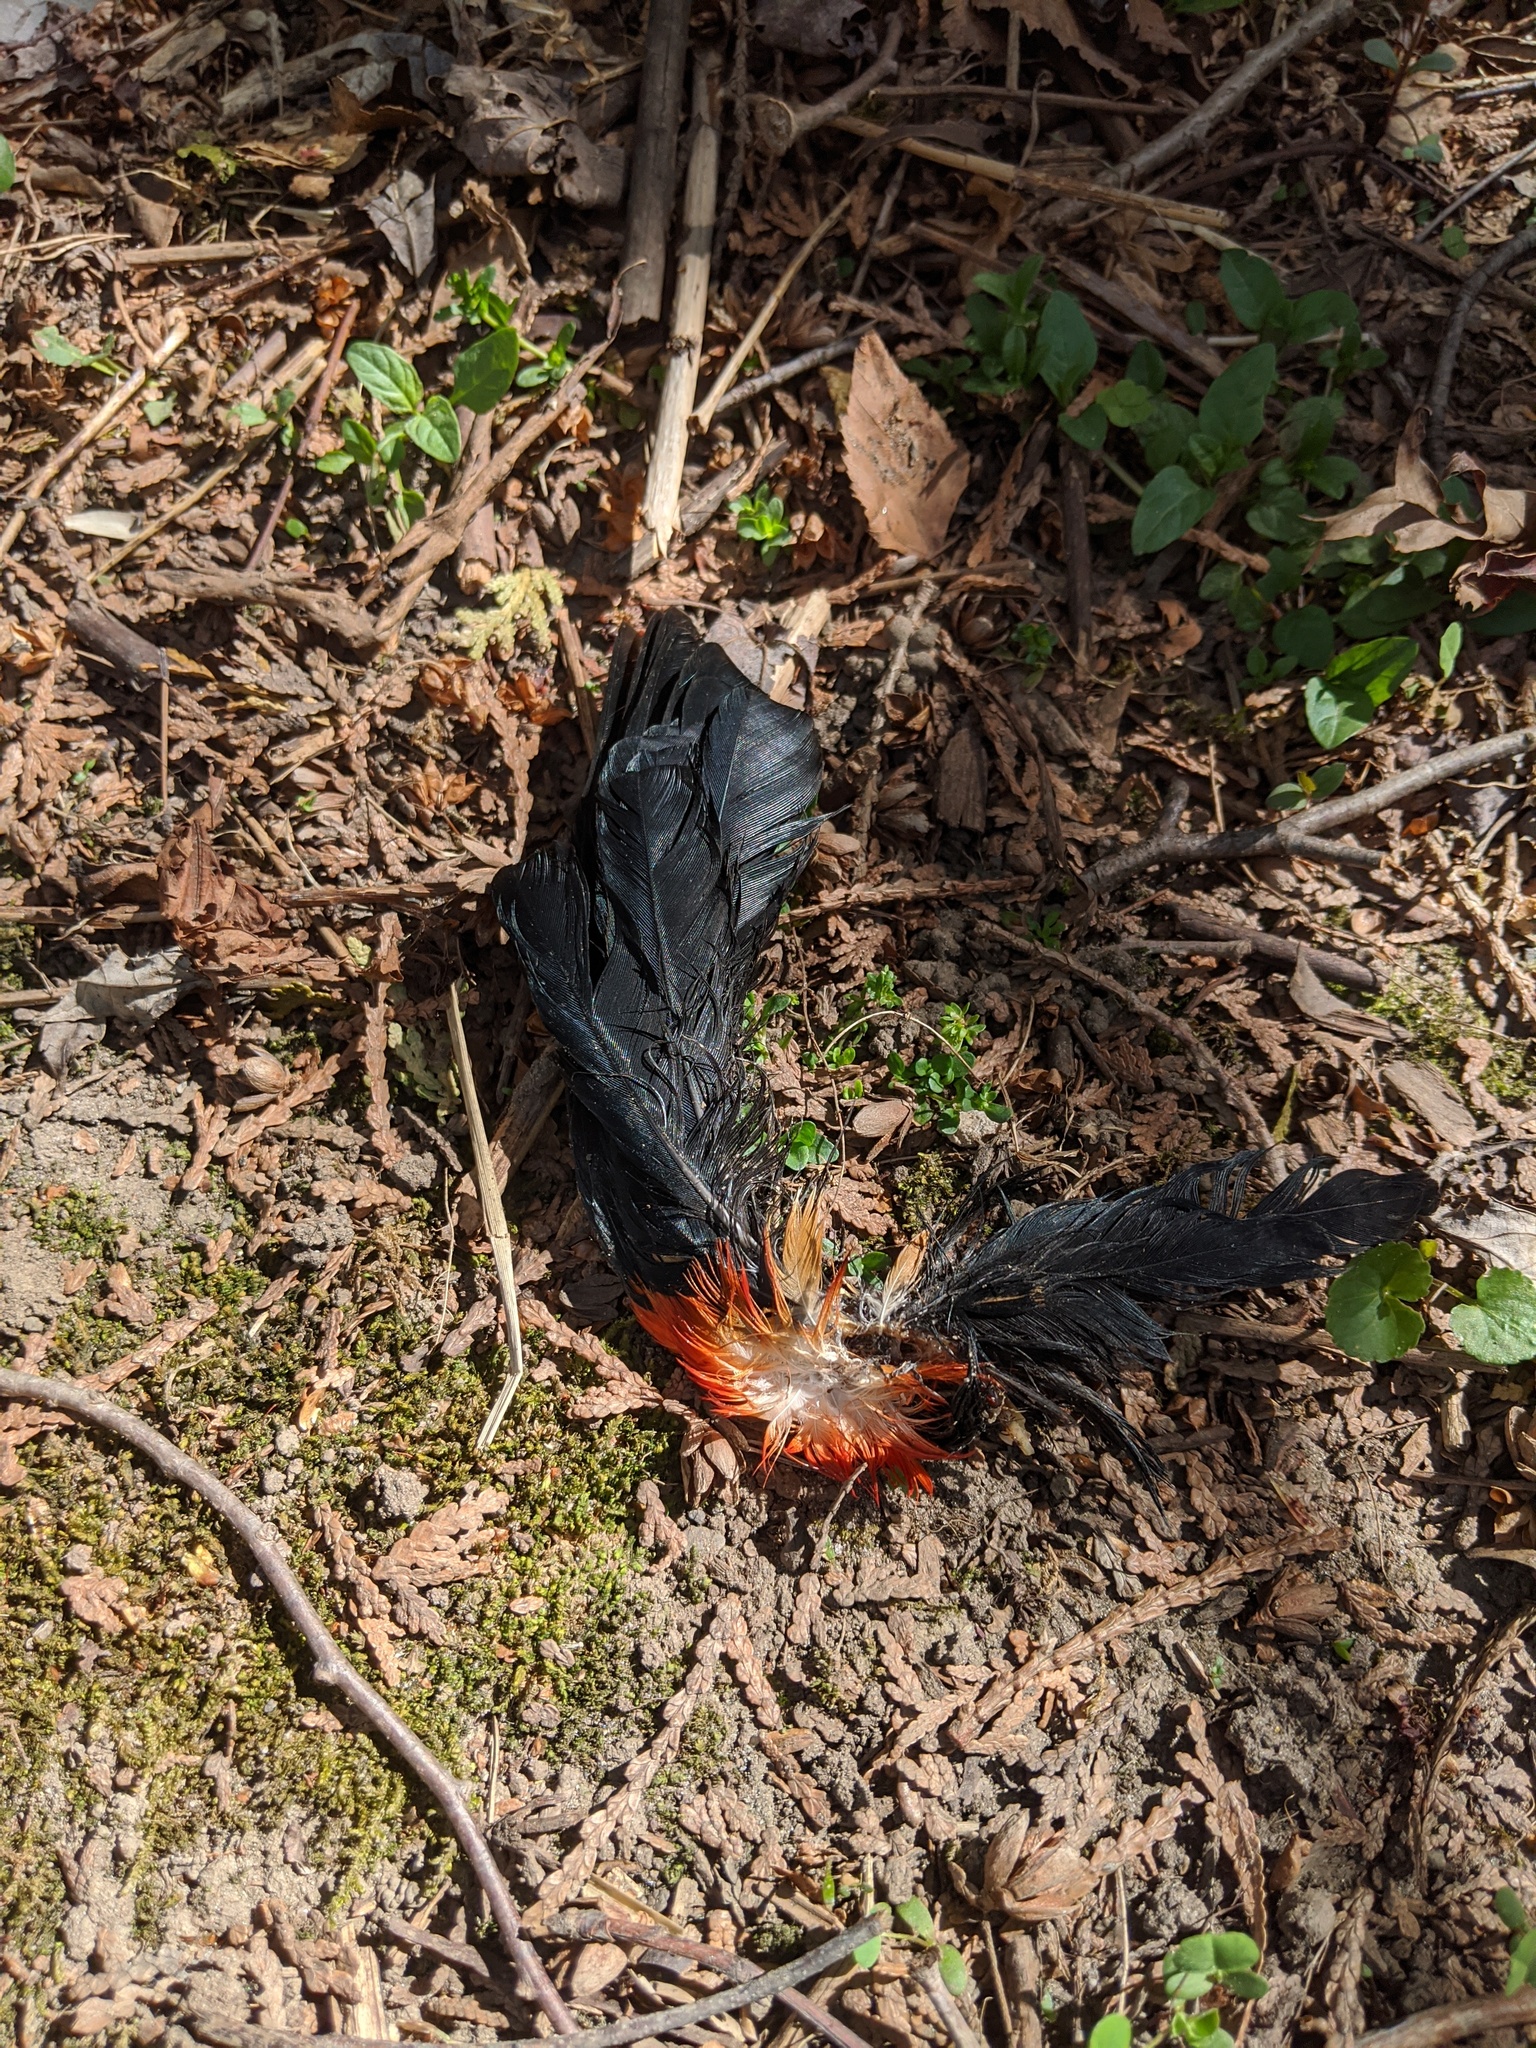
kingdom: Animalia
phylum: Chordata
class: Aves
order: Passeriformes
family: Icteridae
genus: Agelaius
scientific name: Agelaius phoeniceus
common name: Red-winged blackbird
